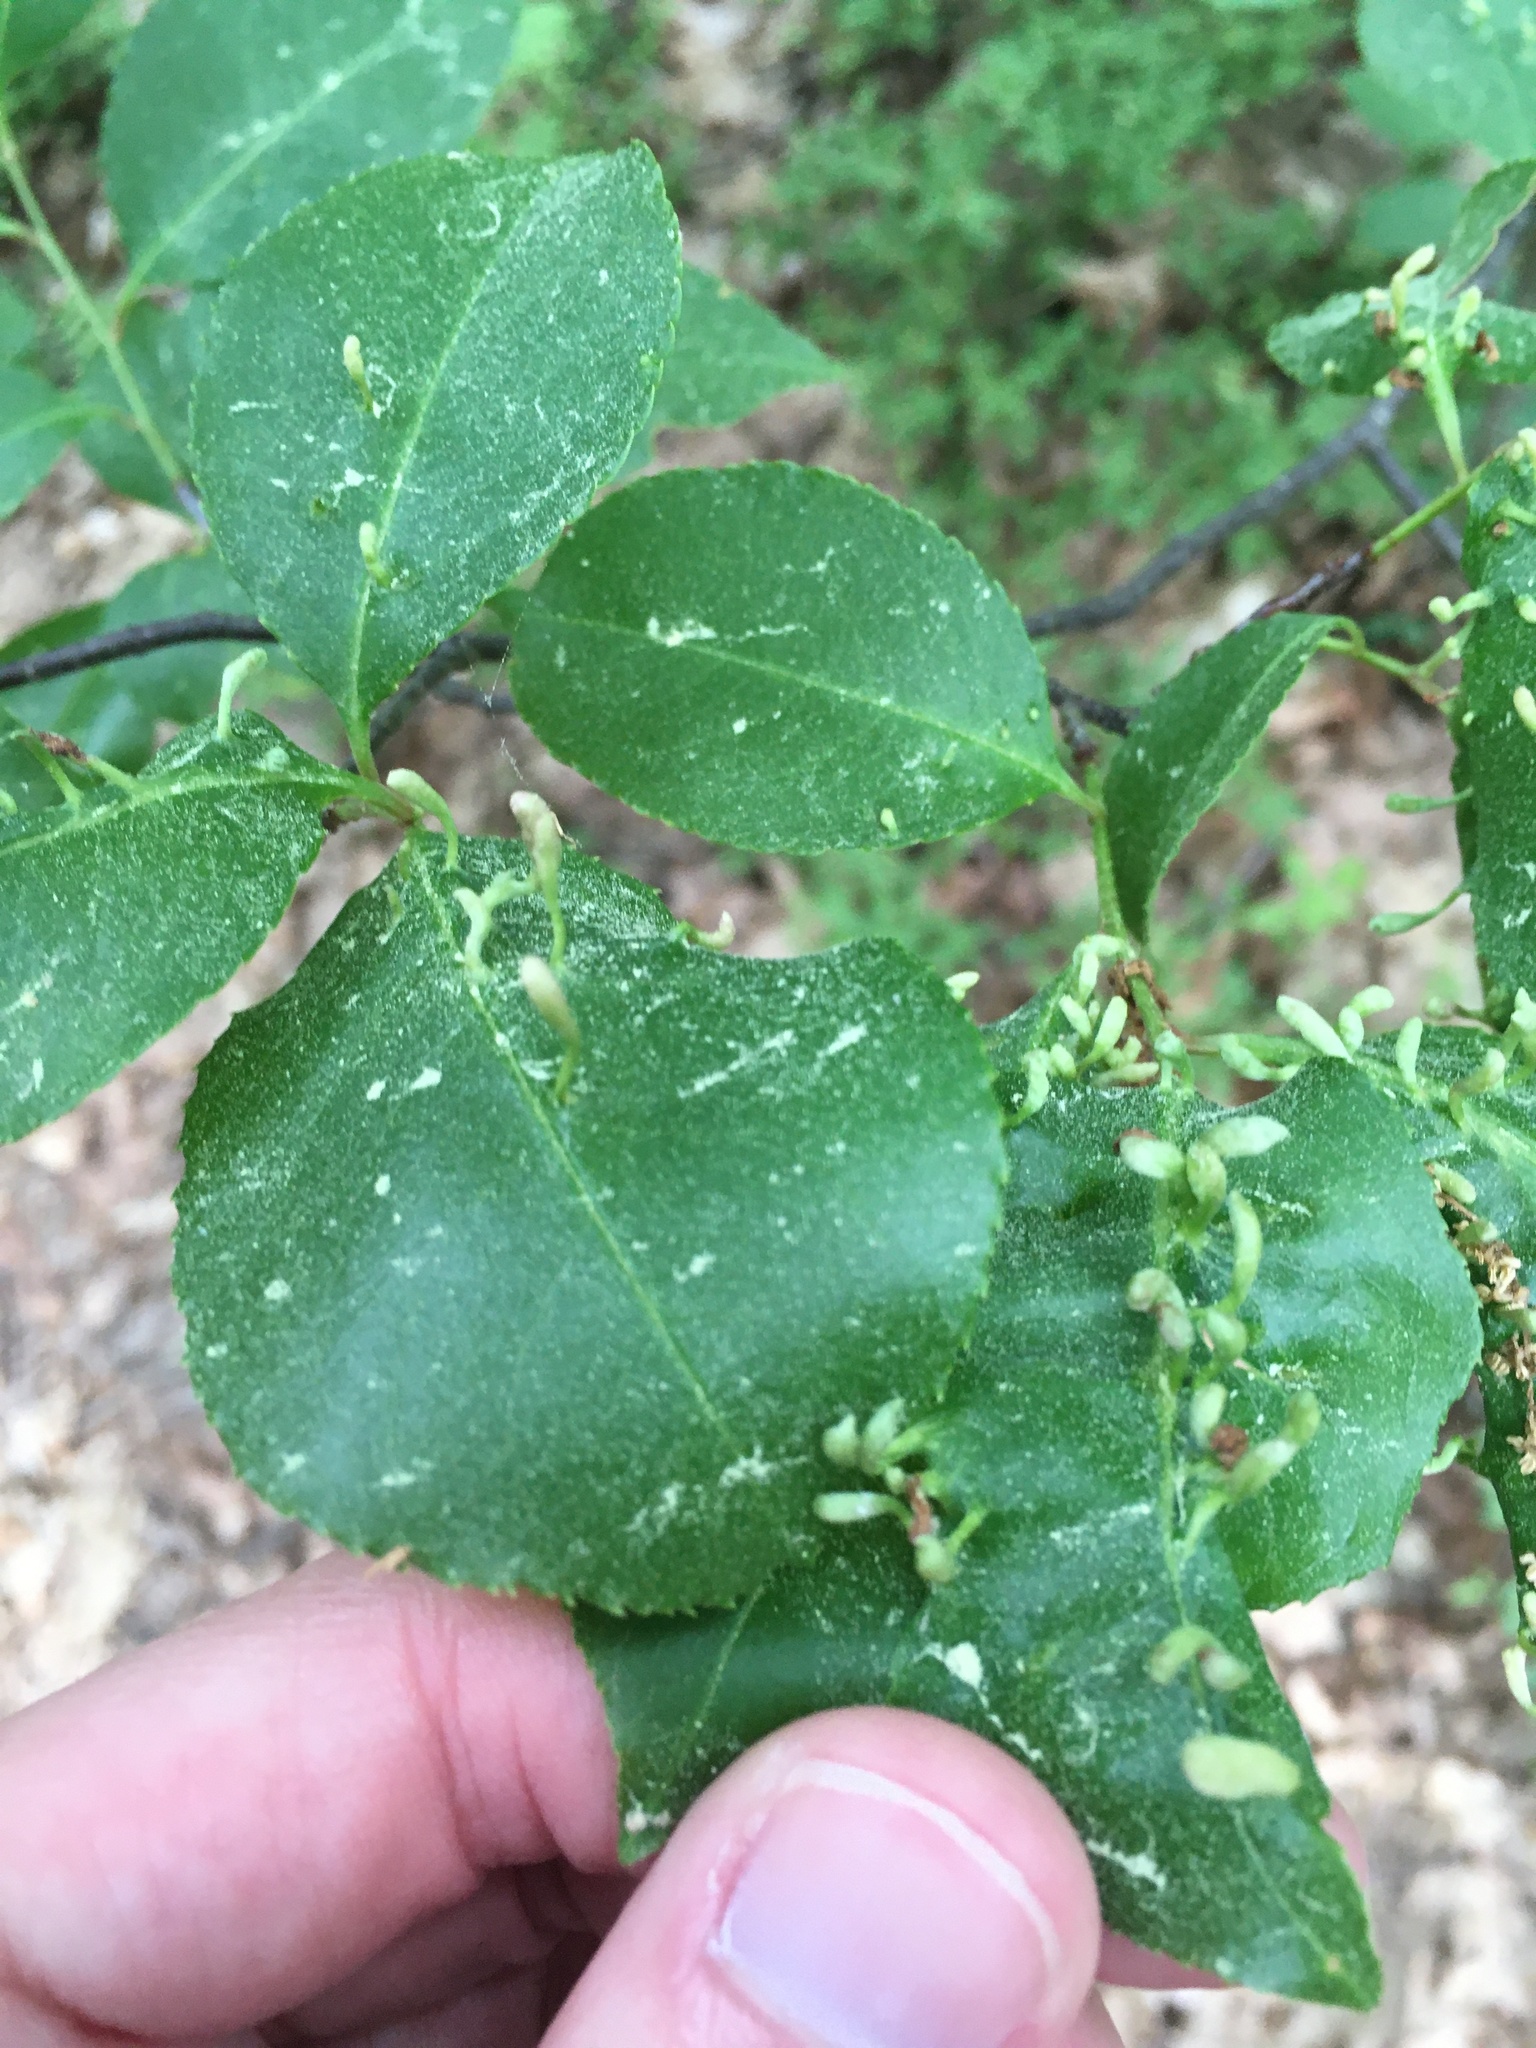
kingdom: Animalia
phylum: Arthropoda
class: Arachnida
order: Trombidiformes
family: Eriophyidae
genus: Eriophyes
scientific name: Eriophyes
